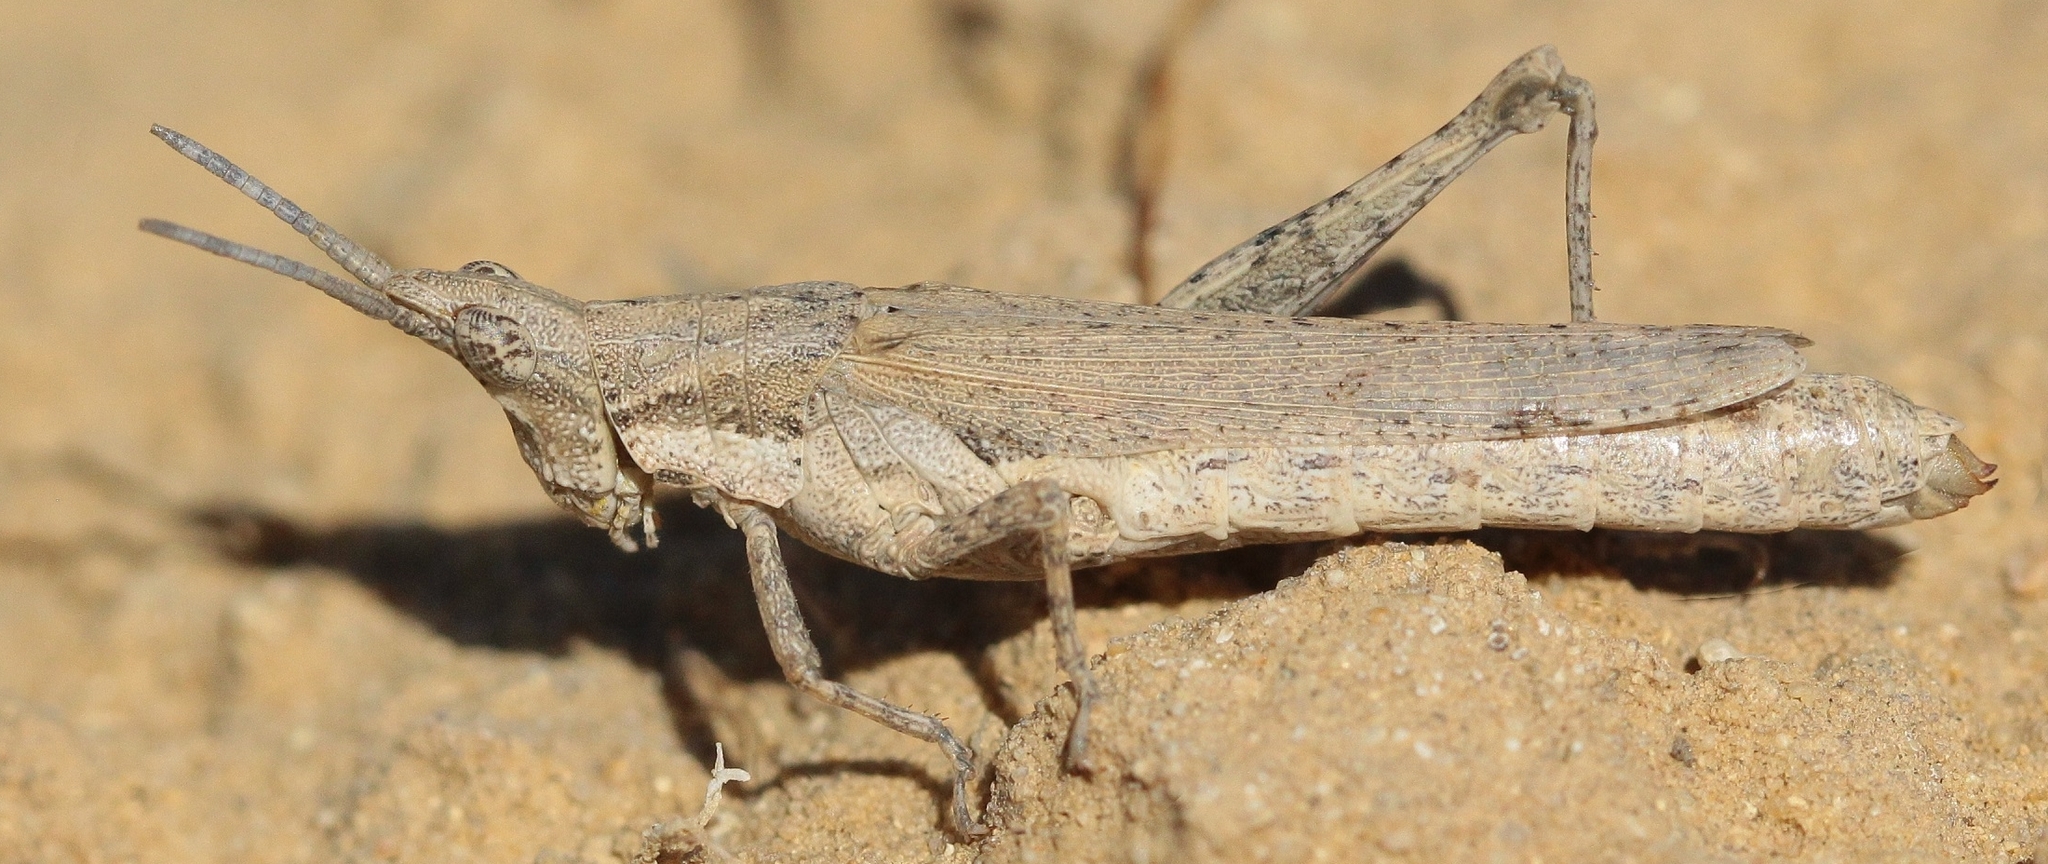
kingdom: Animalia
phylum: Arthropoda
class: Insecta
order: Orthoptera
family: Pyrgomorphidae
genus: Pyrgomorpha
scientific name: Pyrgomorpha bispinosa
